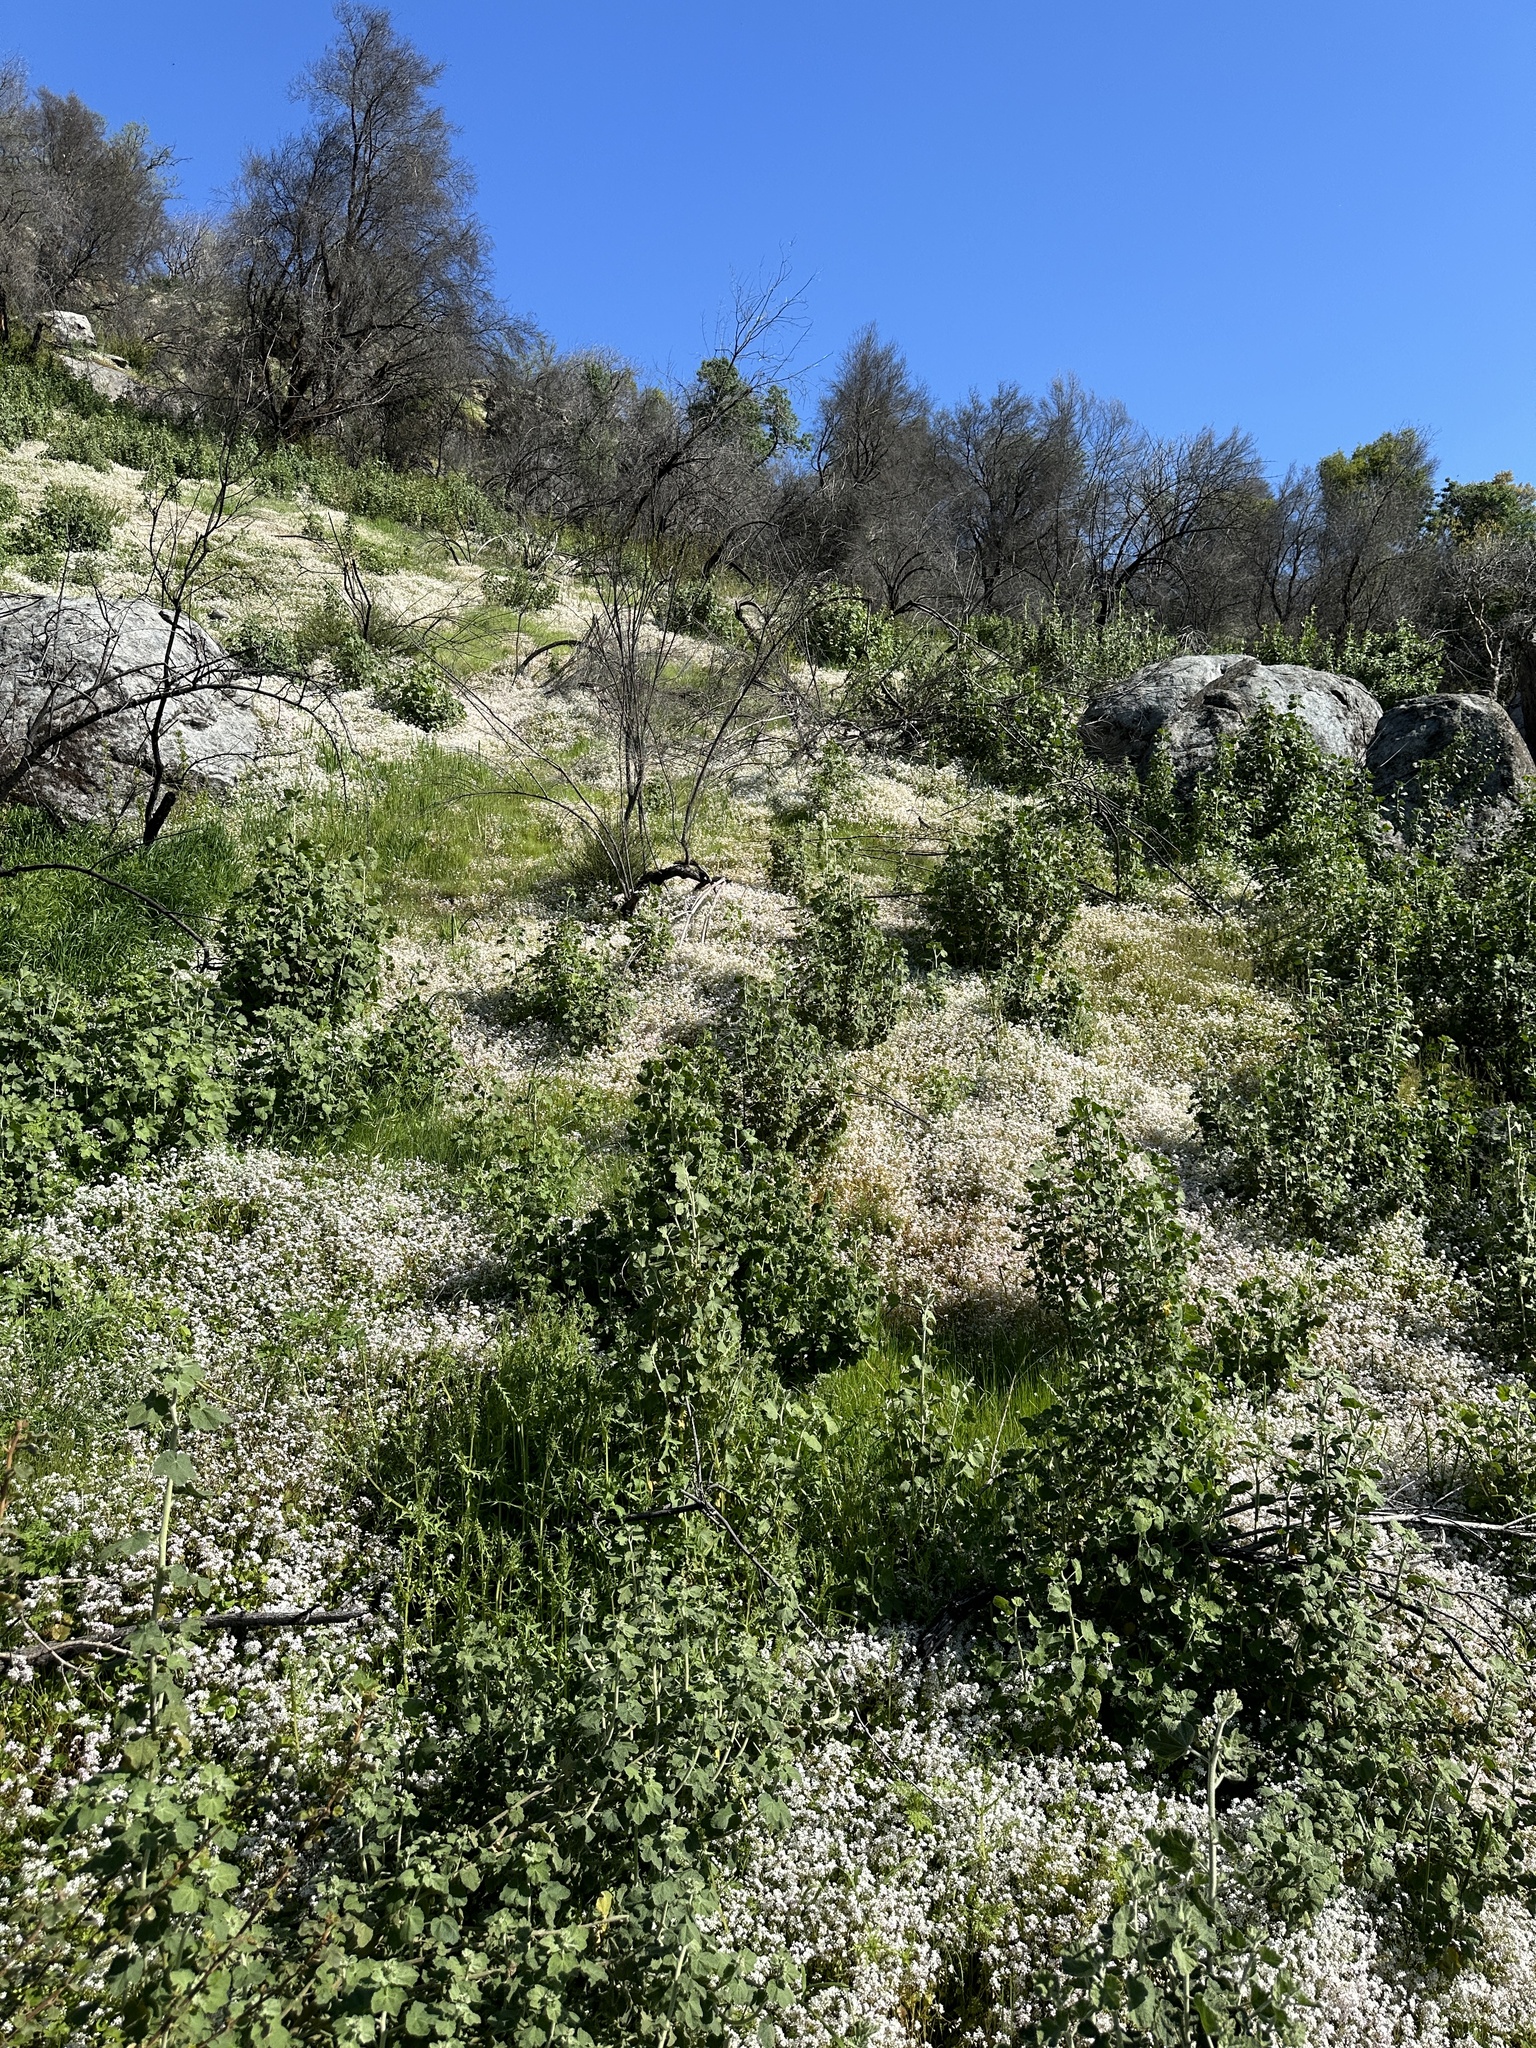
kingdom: Plantae
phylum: Tracheophyta
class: Magnoliopsida
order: Caryophyllales
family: Montiaceae
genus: Claytonia
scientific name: Claytonia parviflora
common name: Indian-lettuce
